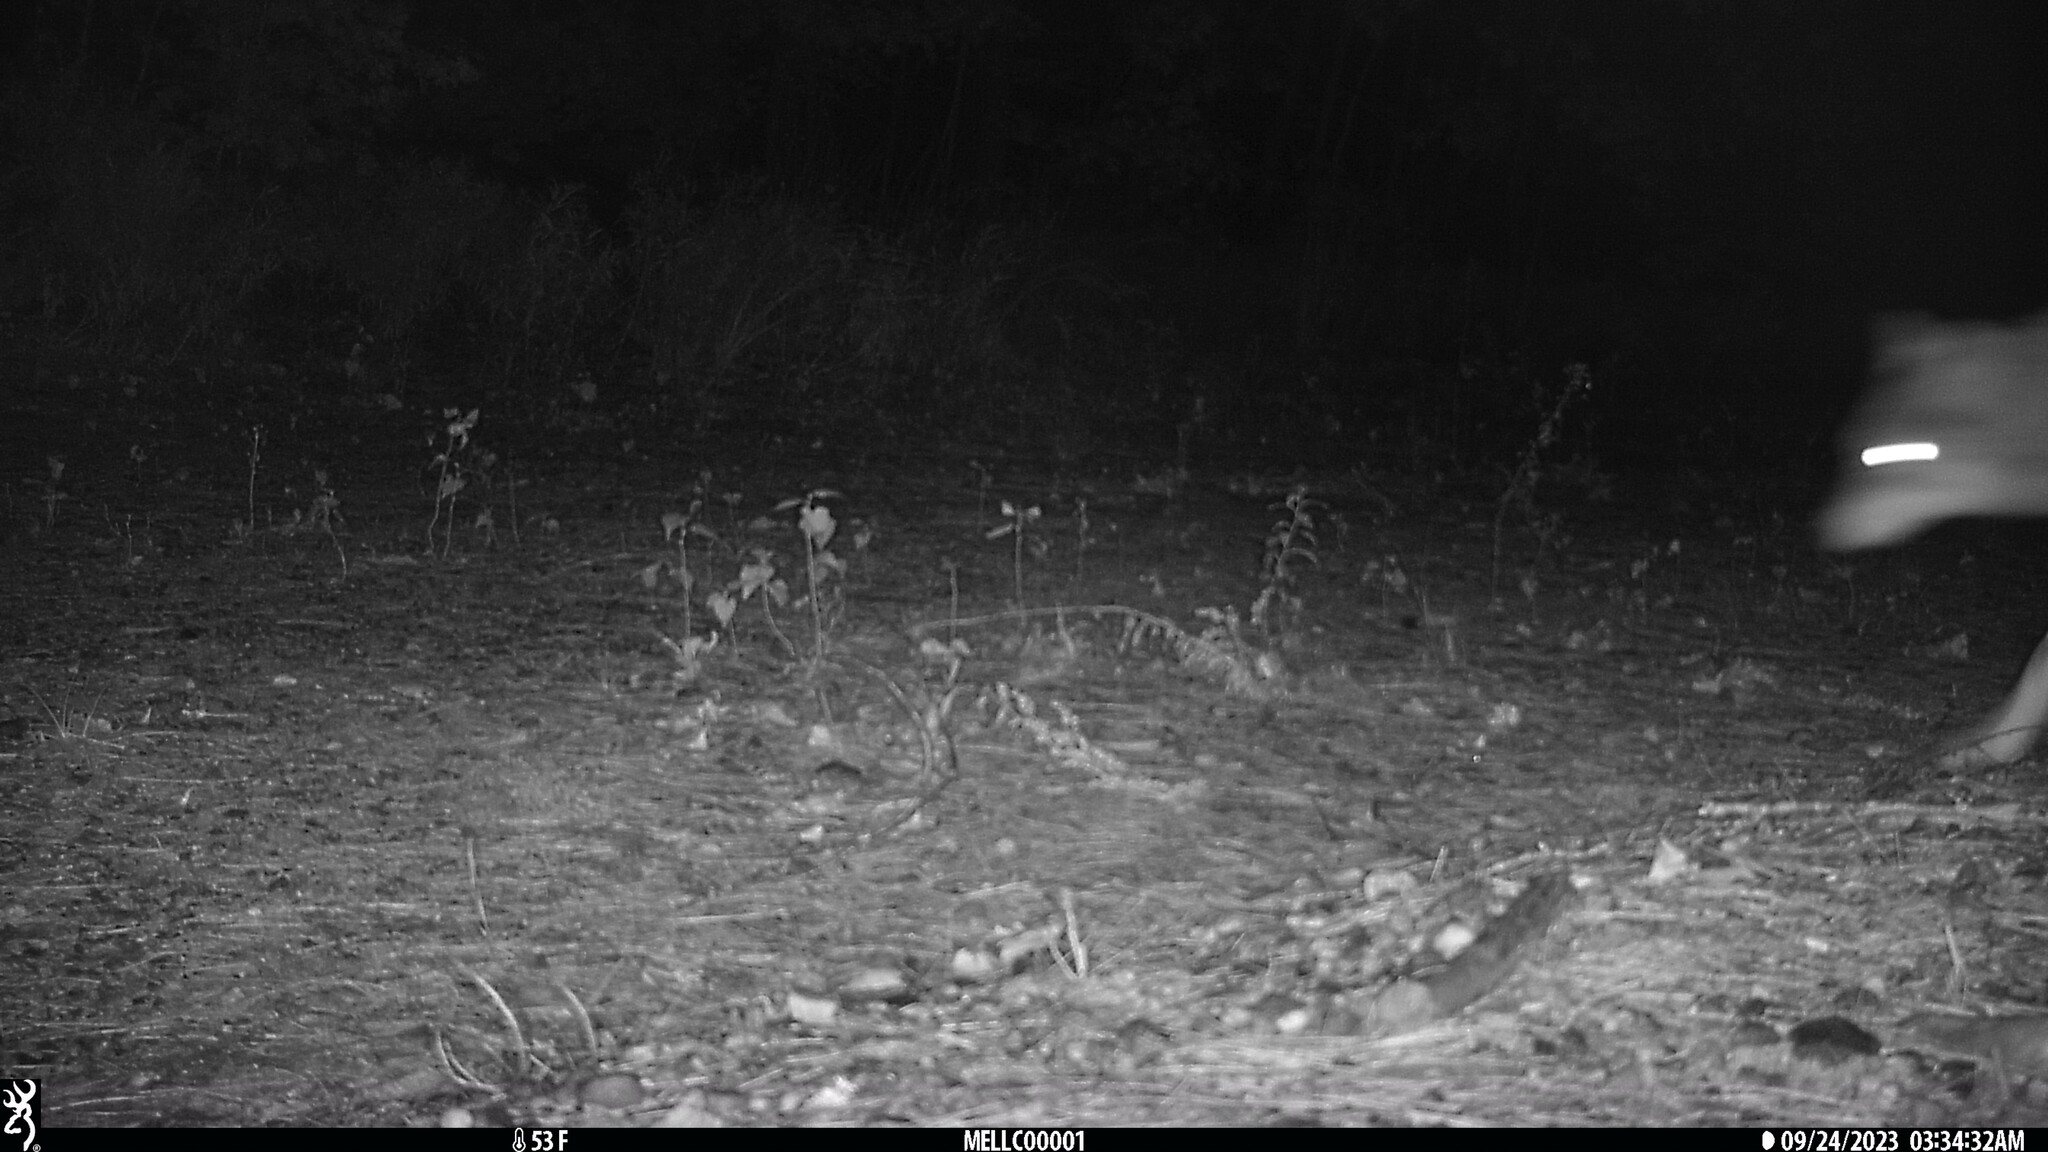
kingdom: Animalia
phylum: Chordata
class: Mammalia
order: Carnivora
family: Canidae
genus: Canis
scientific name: Canis latrans
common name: Coyote
